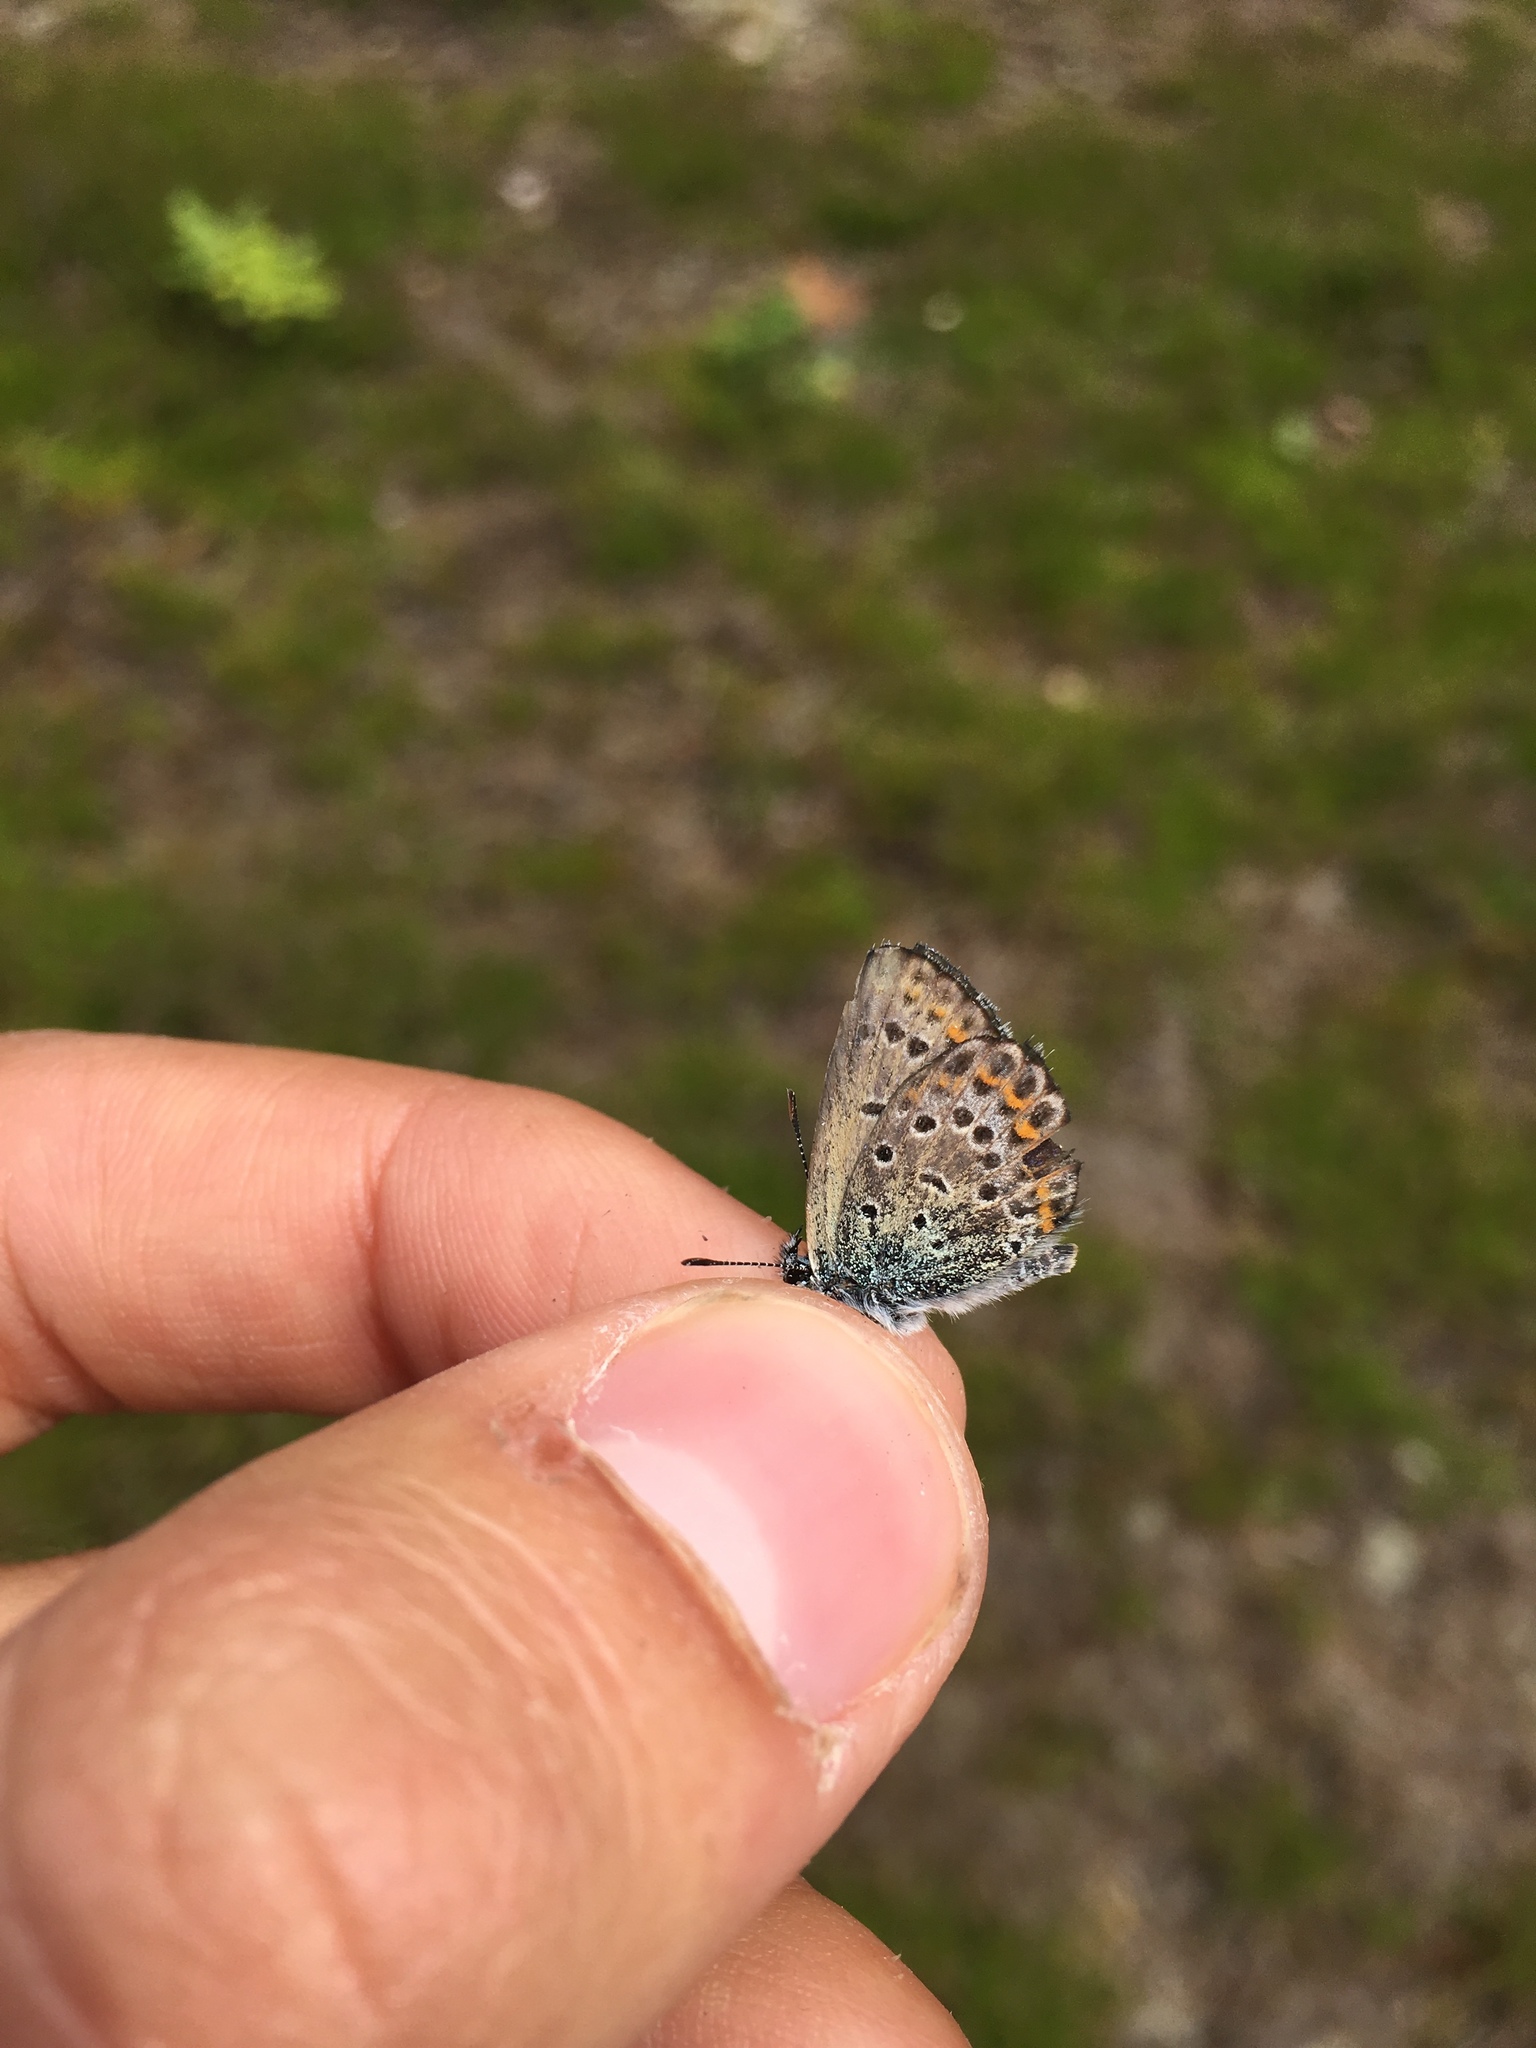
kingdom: Animalia
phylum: Arthropoda
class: Insecta
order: Lepidoptera
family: Lycaenidae
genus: Lycaeides
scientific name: Lycaeides idas
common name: Northern blue
